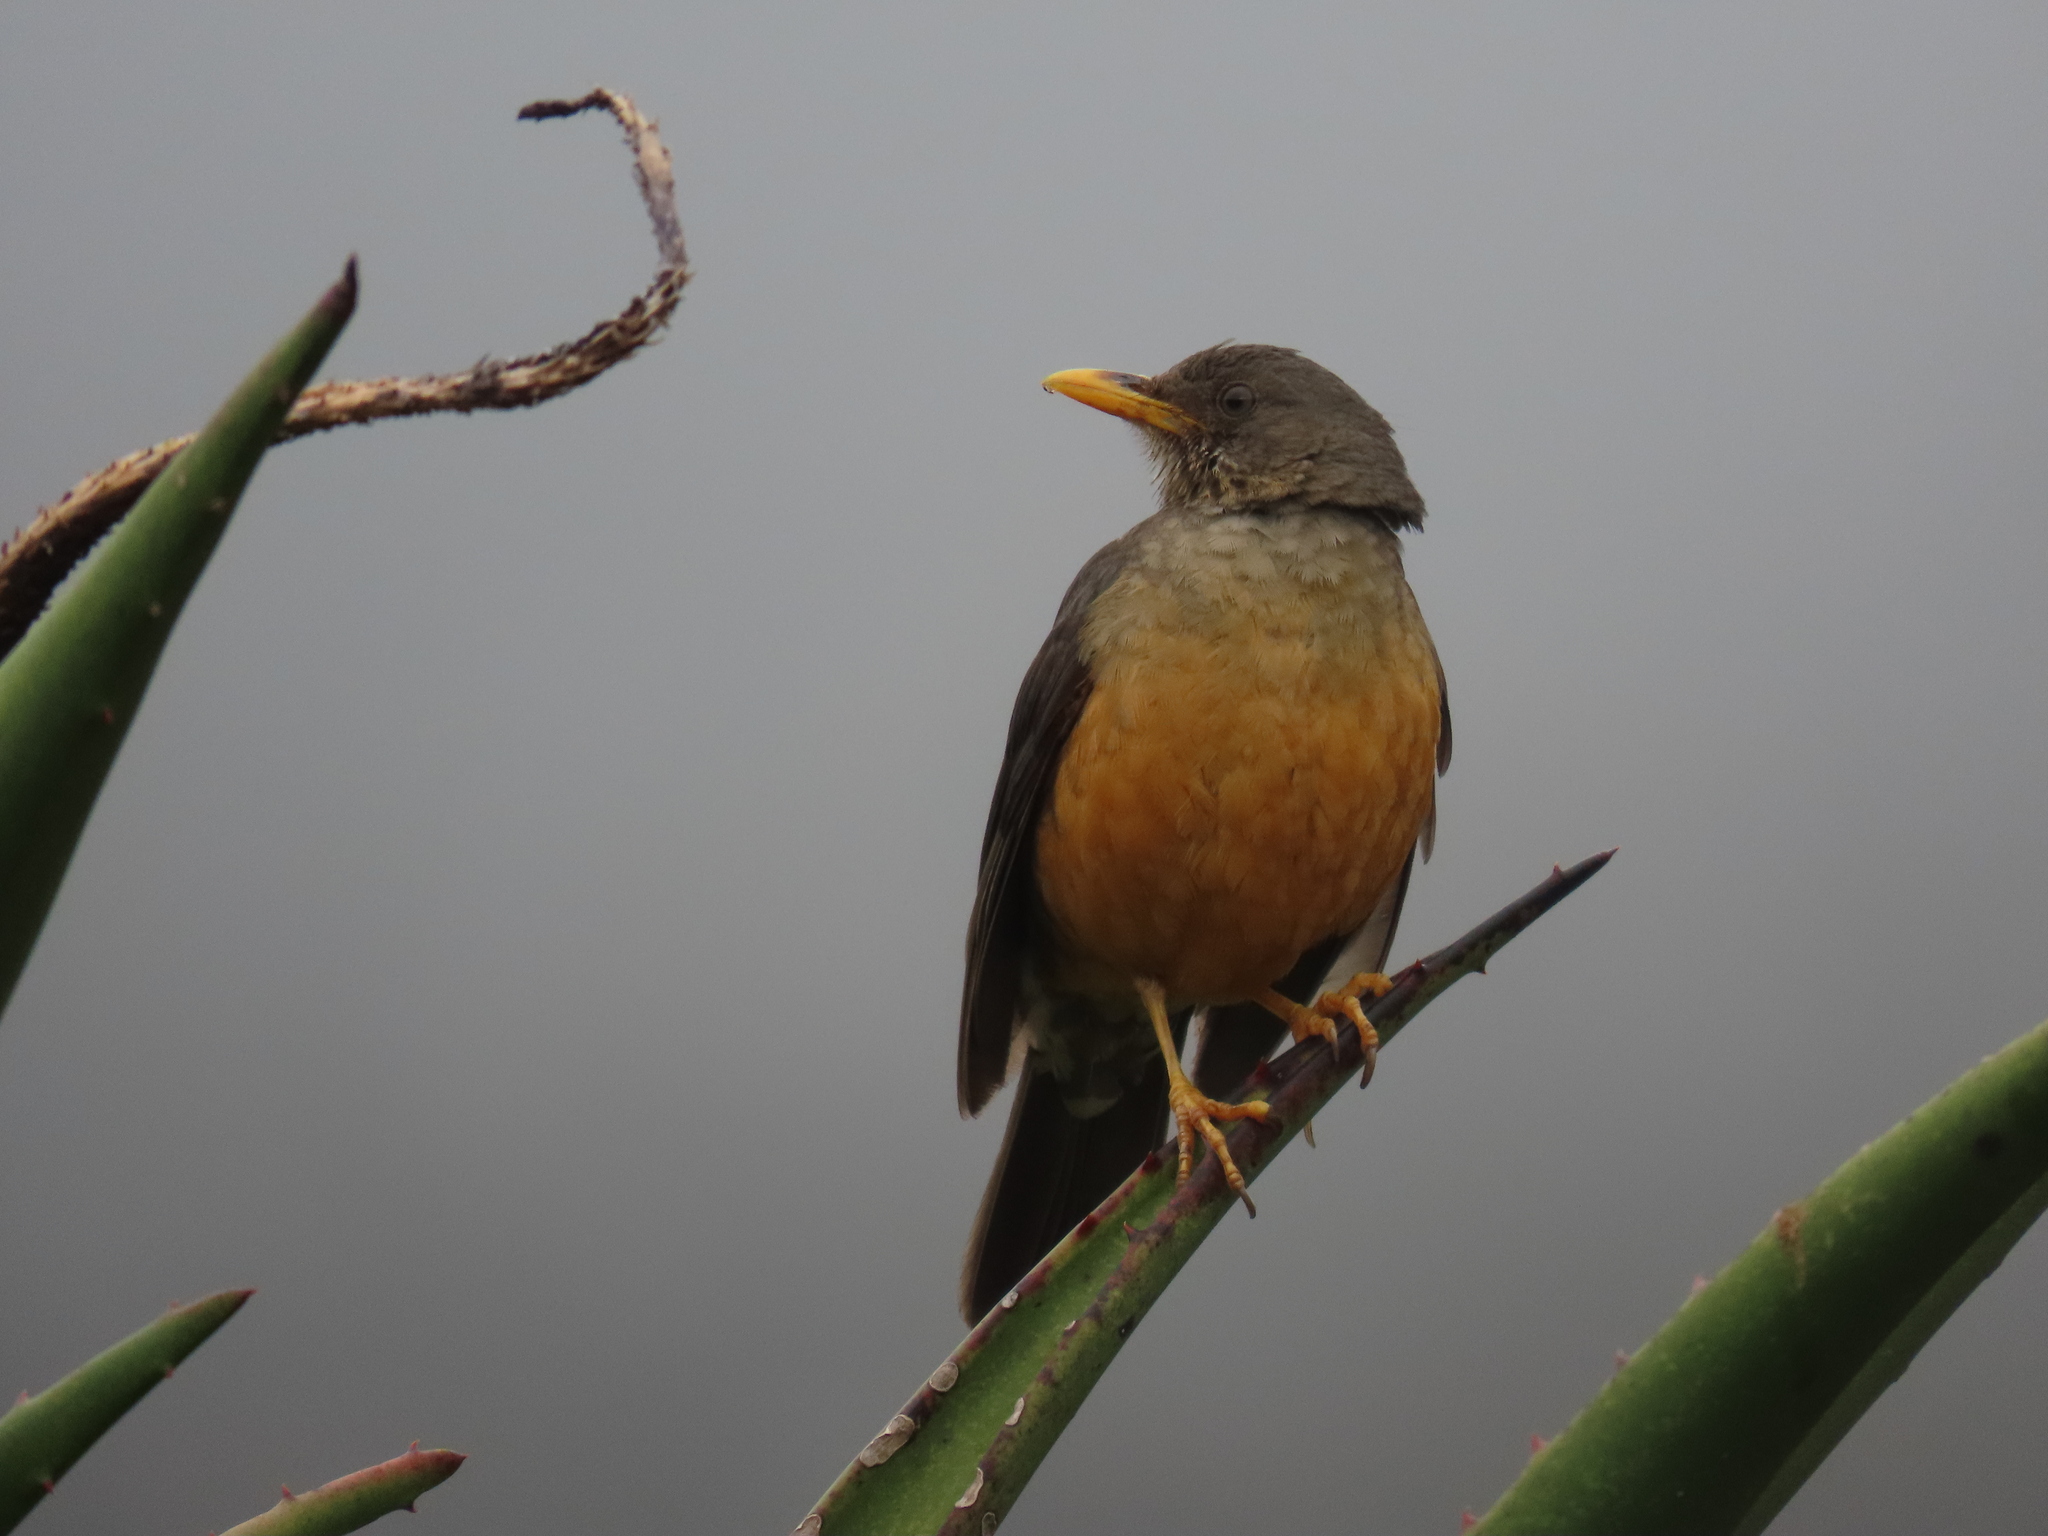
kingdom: Animalia
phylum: Chordata
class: Aves
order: Passeriformes
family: Turdidae
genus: Turdus
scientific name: Turdus olivaceus
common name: Olive thrush
